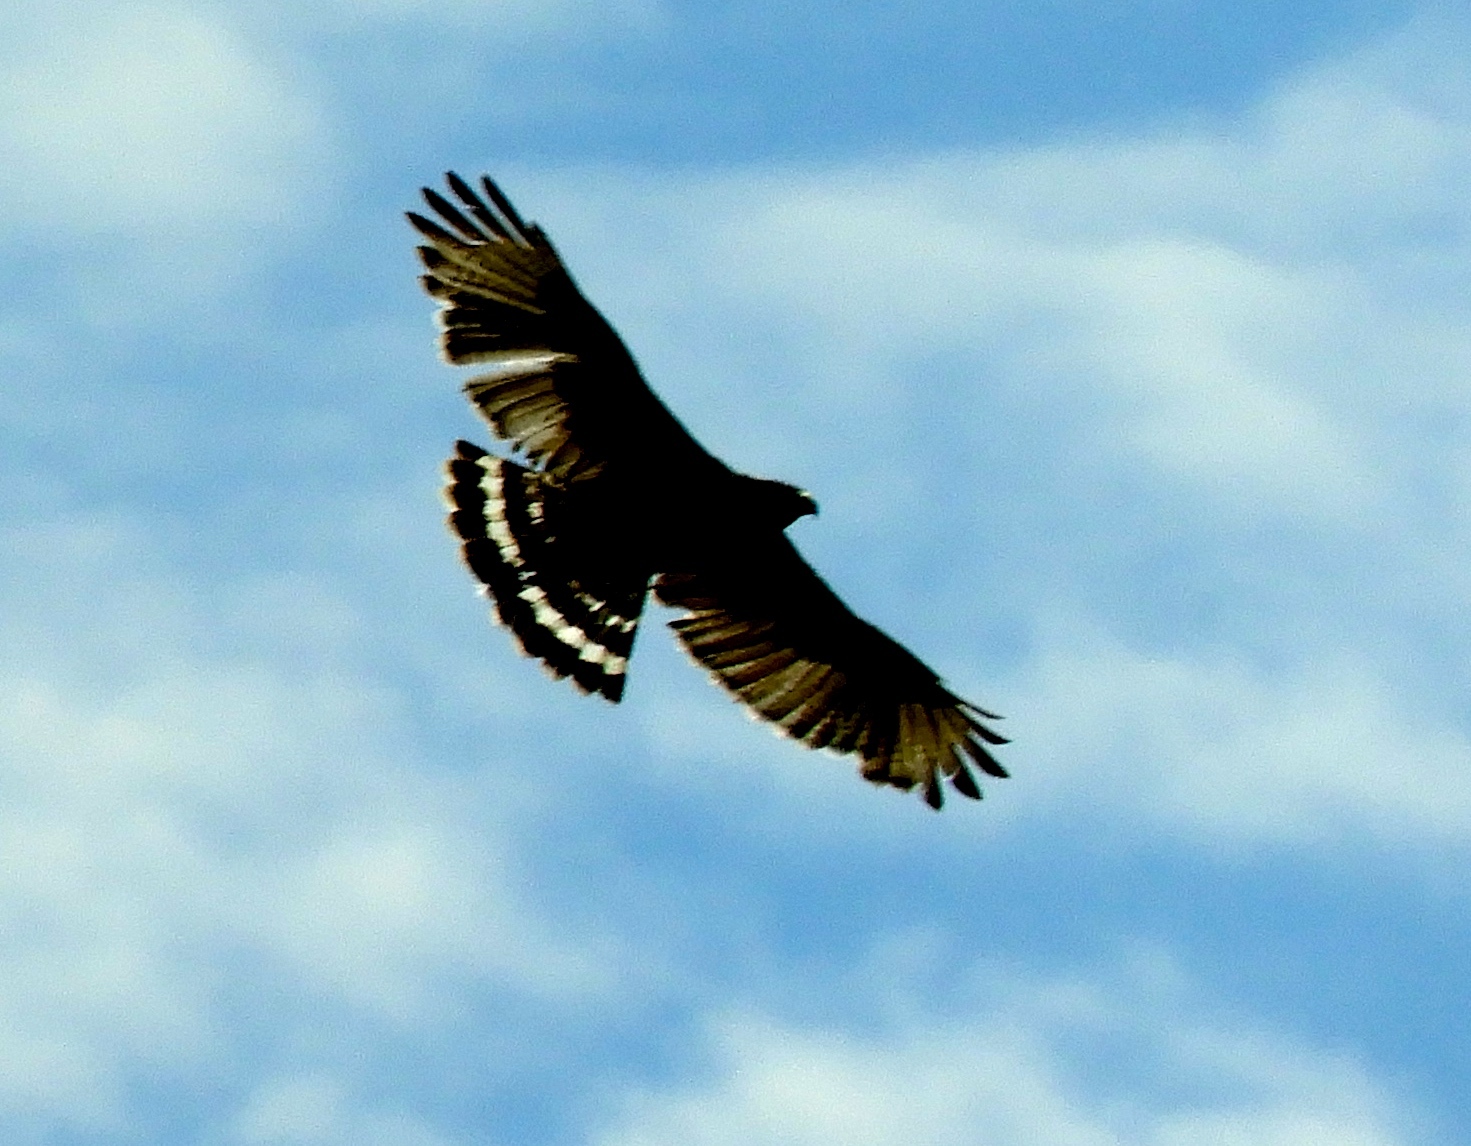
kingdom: Animalia
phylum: Chordata
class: Aves
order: Accipitriformes
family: Accipitridae
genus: Buteo
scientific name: Buteo nitidus
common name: Grey-lined hawk
